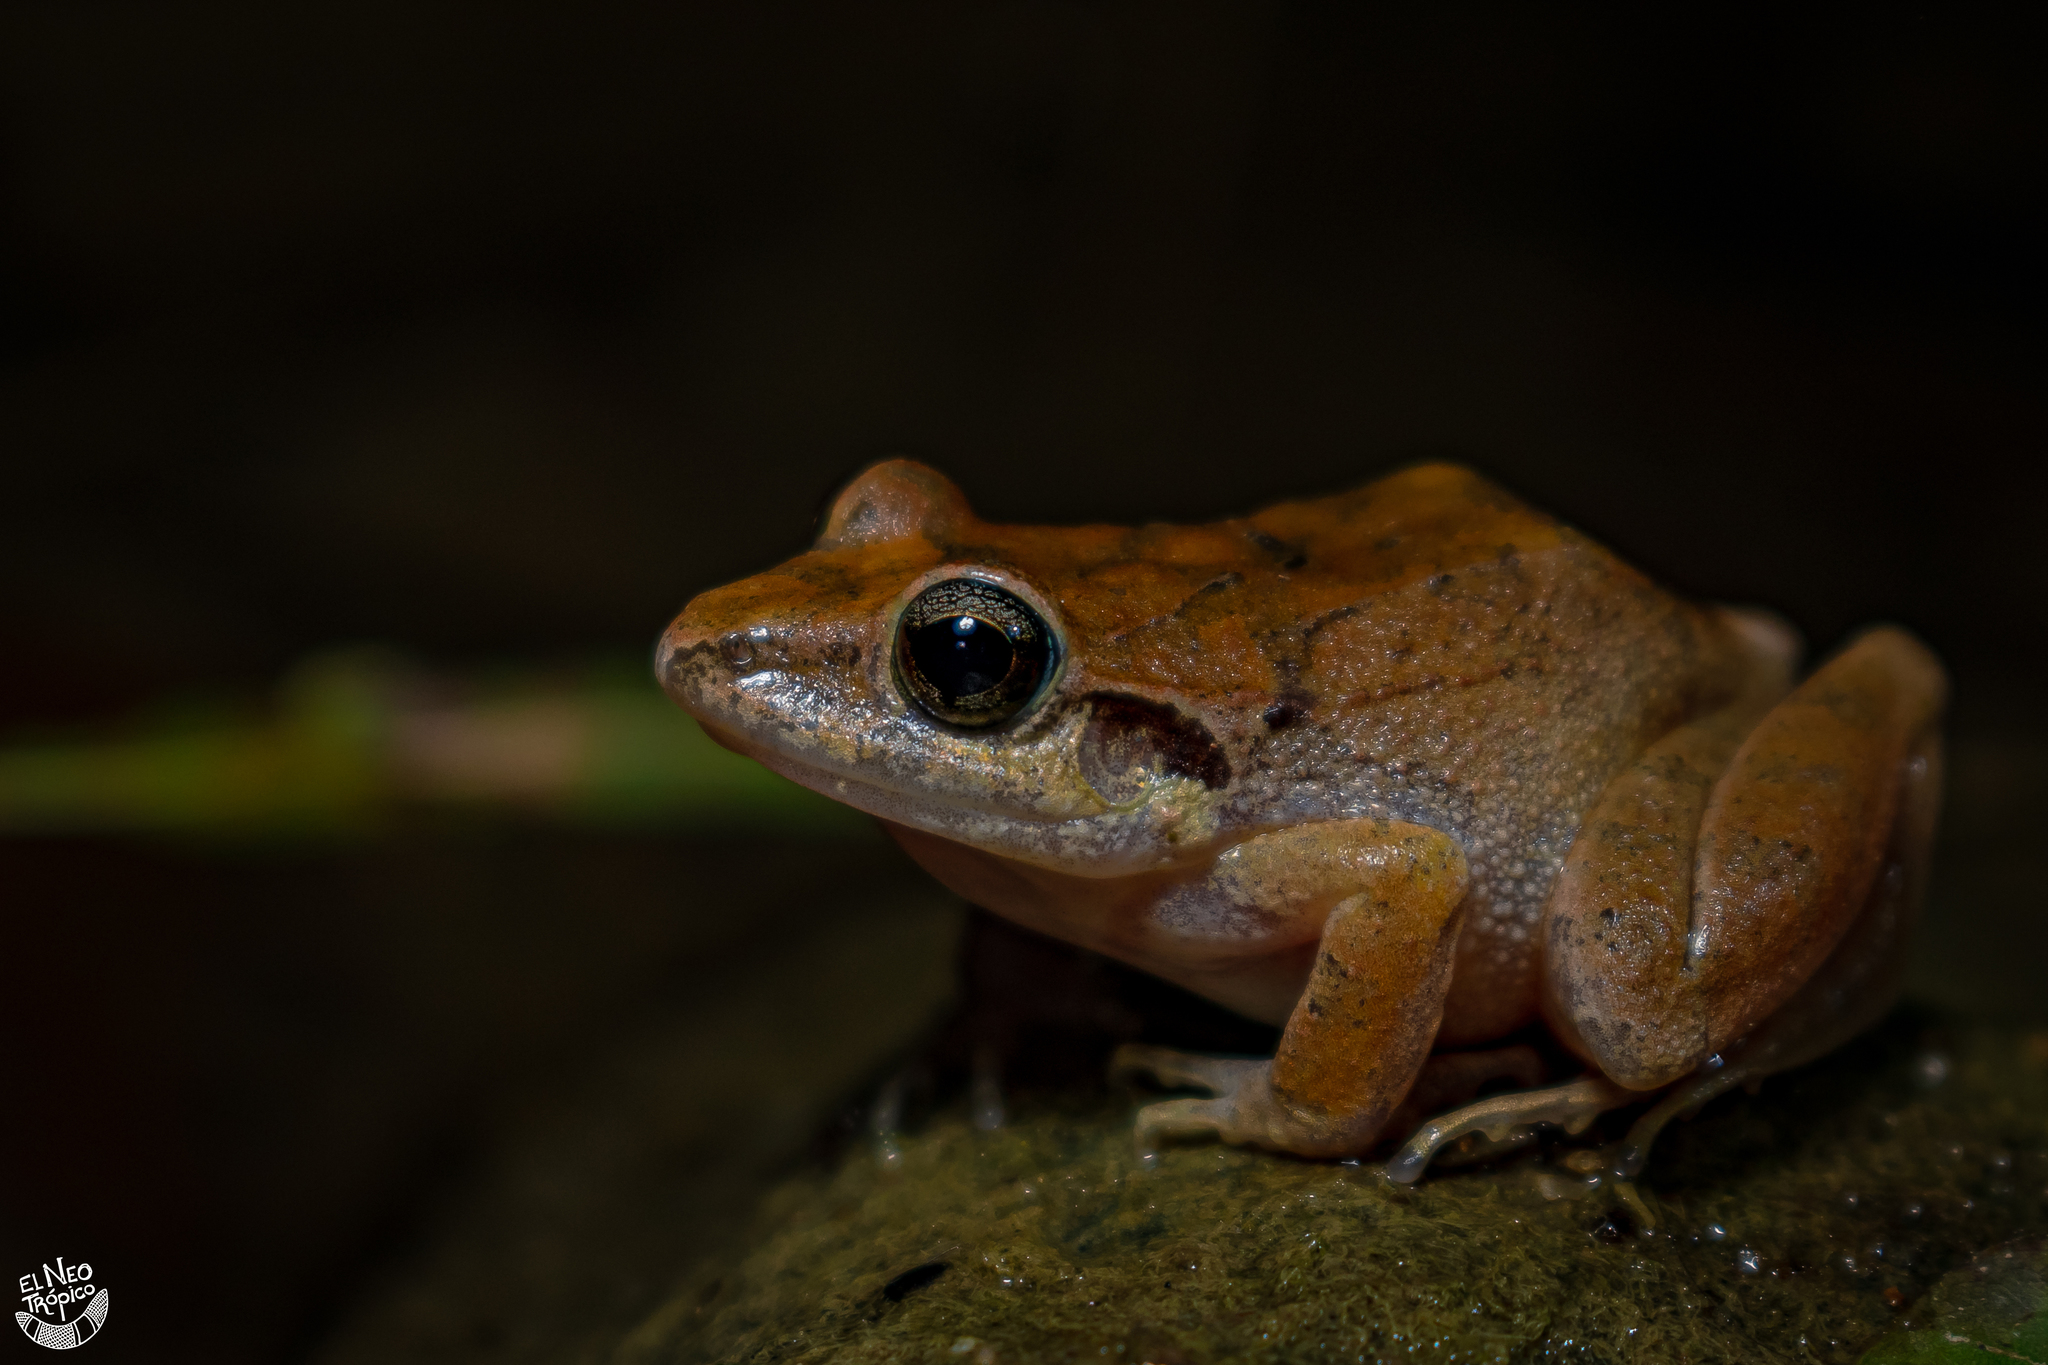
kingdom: Animalia
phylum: Chordata
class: Amphibia
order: Anura
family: Craugastoridae
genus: Craugastor
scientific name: Craugastor loki
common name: Common leaf-litter frog
